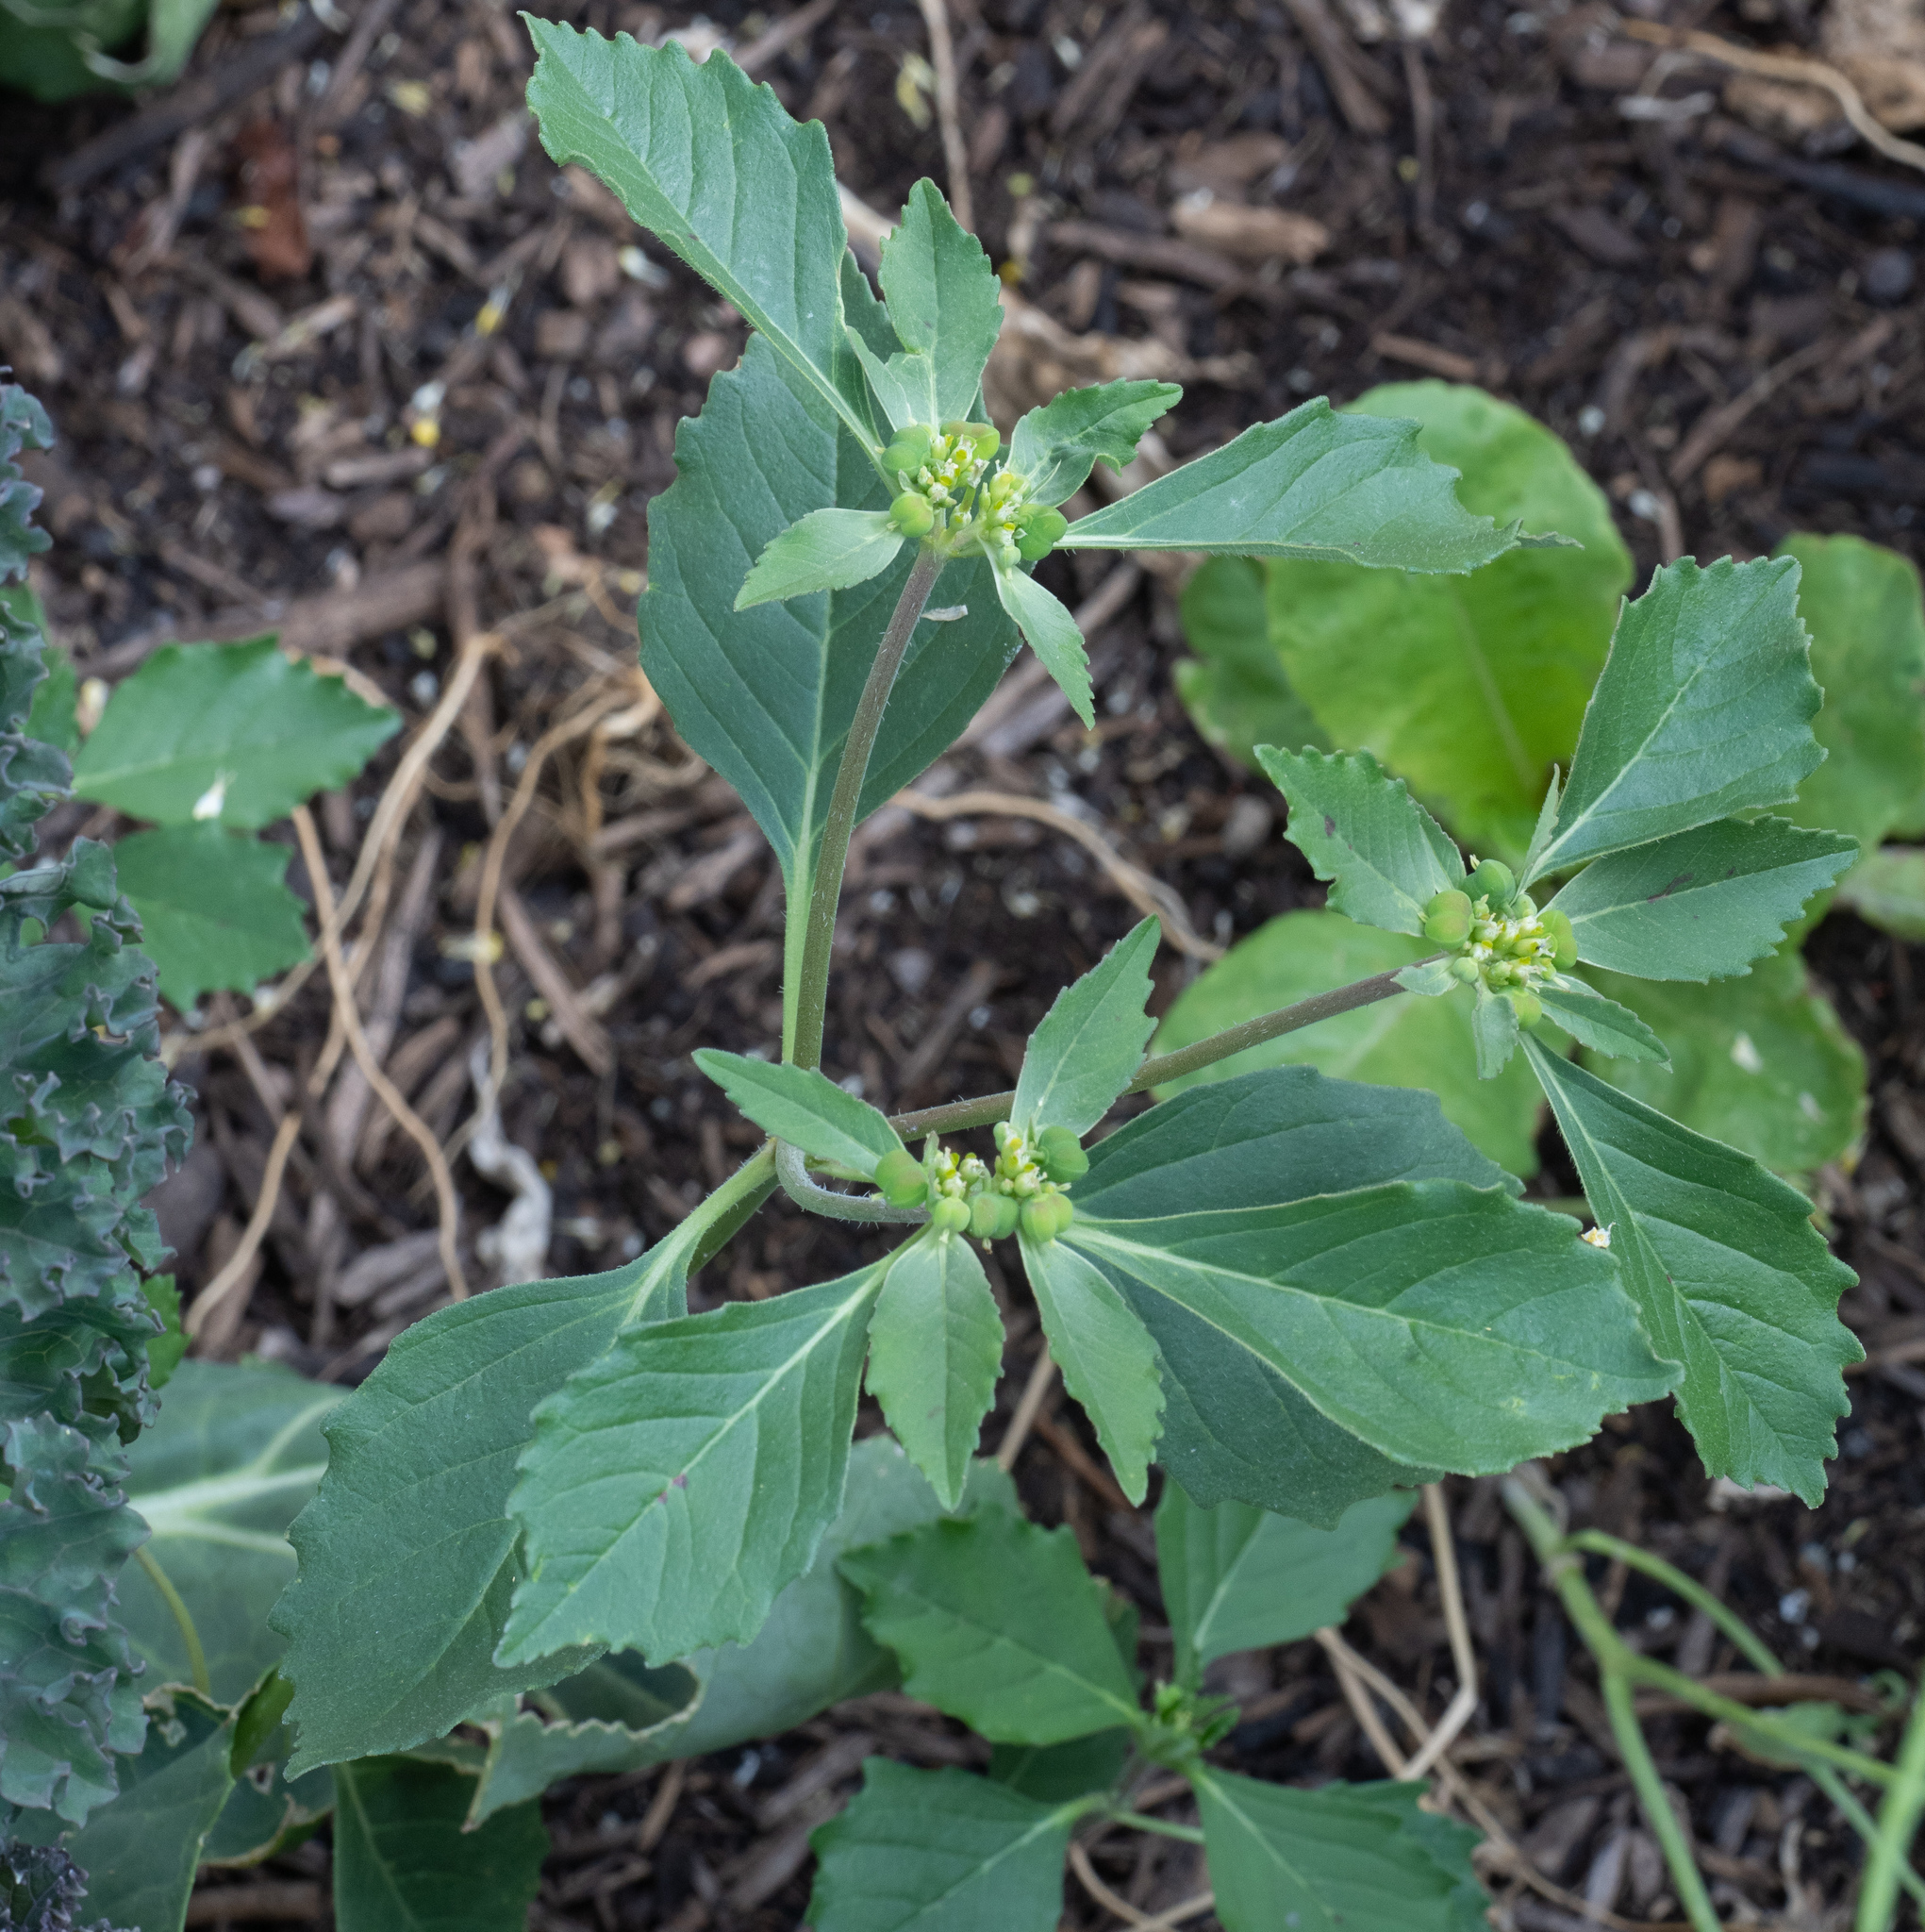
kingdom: Plantae
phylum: Tracheophyta
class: Magnoliopsida
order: Malpighiales
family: Euphorbiaceae
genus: Euphorbia
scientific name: Euphorbia davidii
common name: David's spurge
